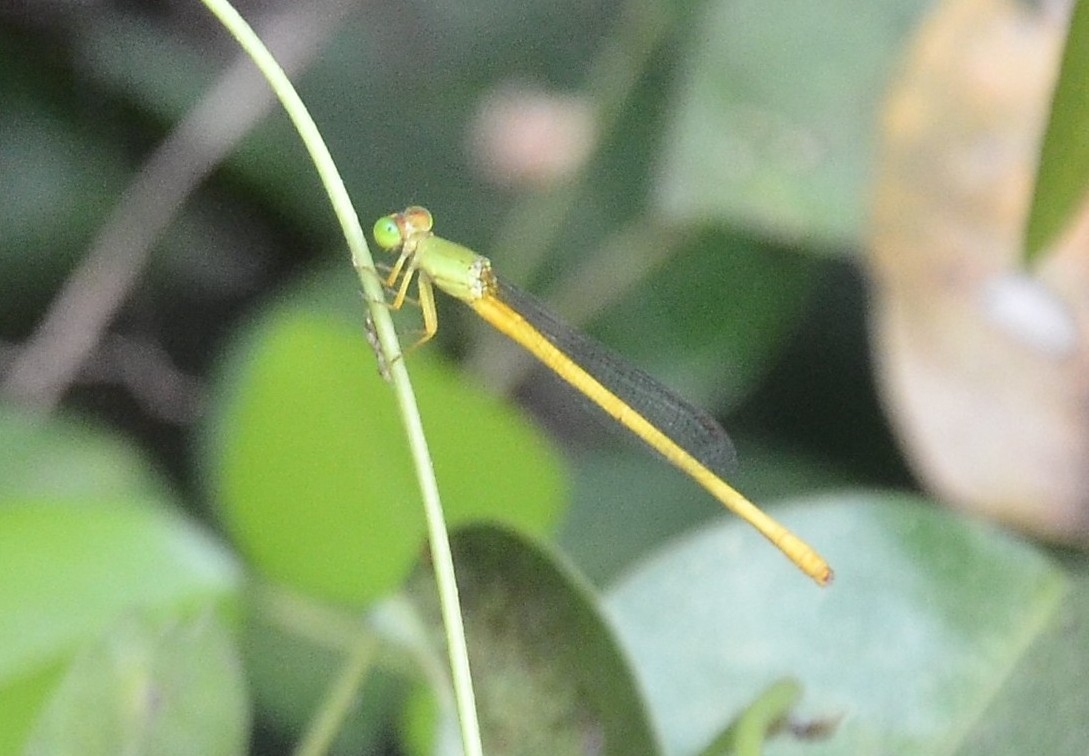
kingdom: Animalia
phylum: Arthropoda
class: Insecta
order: Odonata
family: Coenagrionidae
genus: Ceriagrion
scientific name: Ceriagrion coromandelianum
